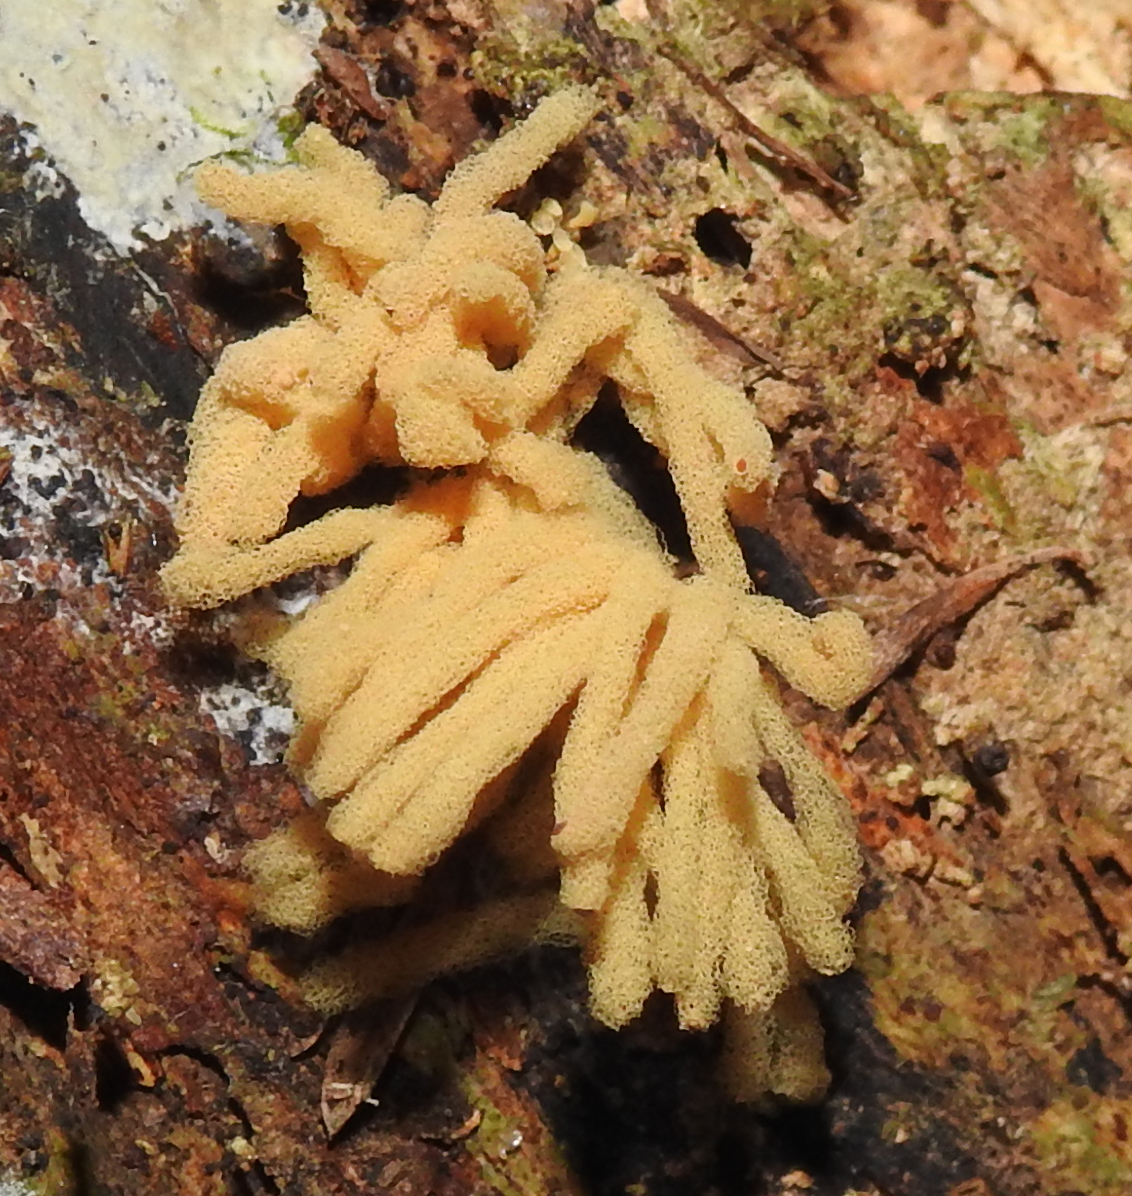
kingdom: Protozoa
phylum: Mycetozoa
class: Myxomycetes
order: Trichiales
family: Arcyriaceae
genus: Arcyria
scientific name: Arcyria obvelata
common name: Yellow carnival candy slime
